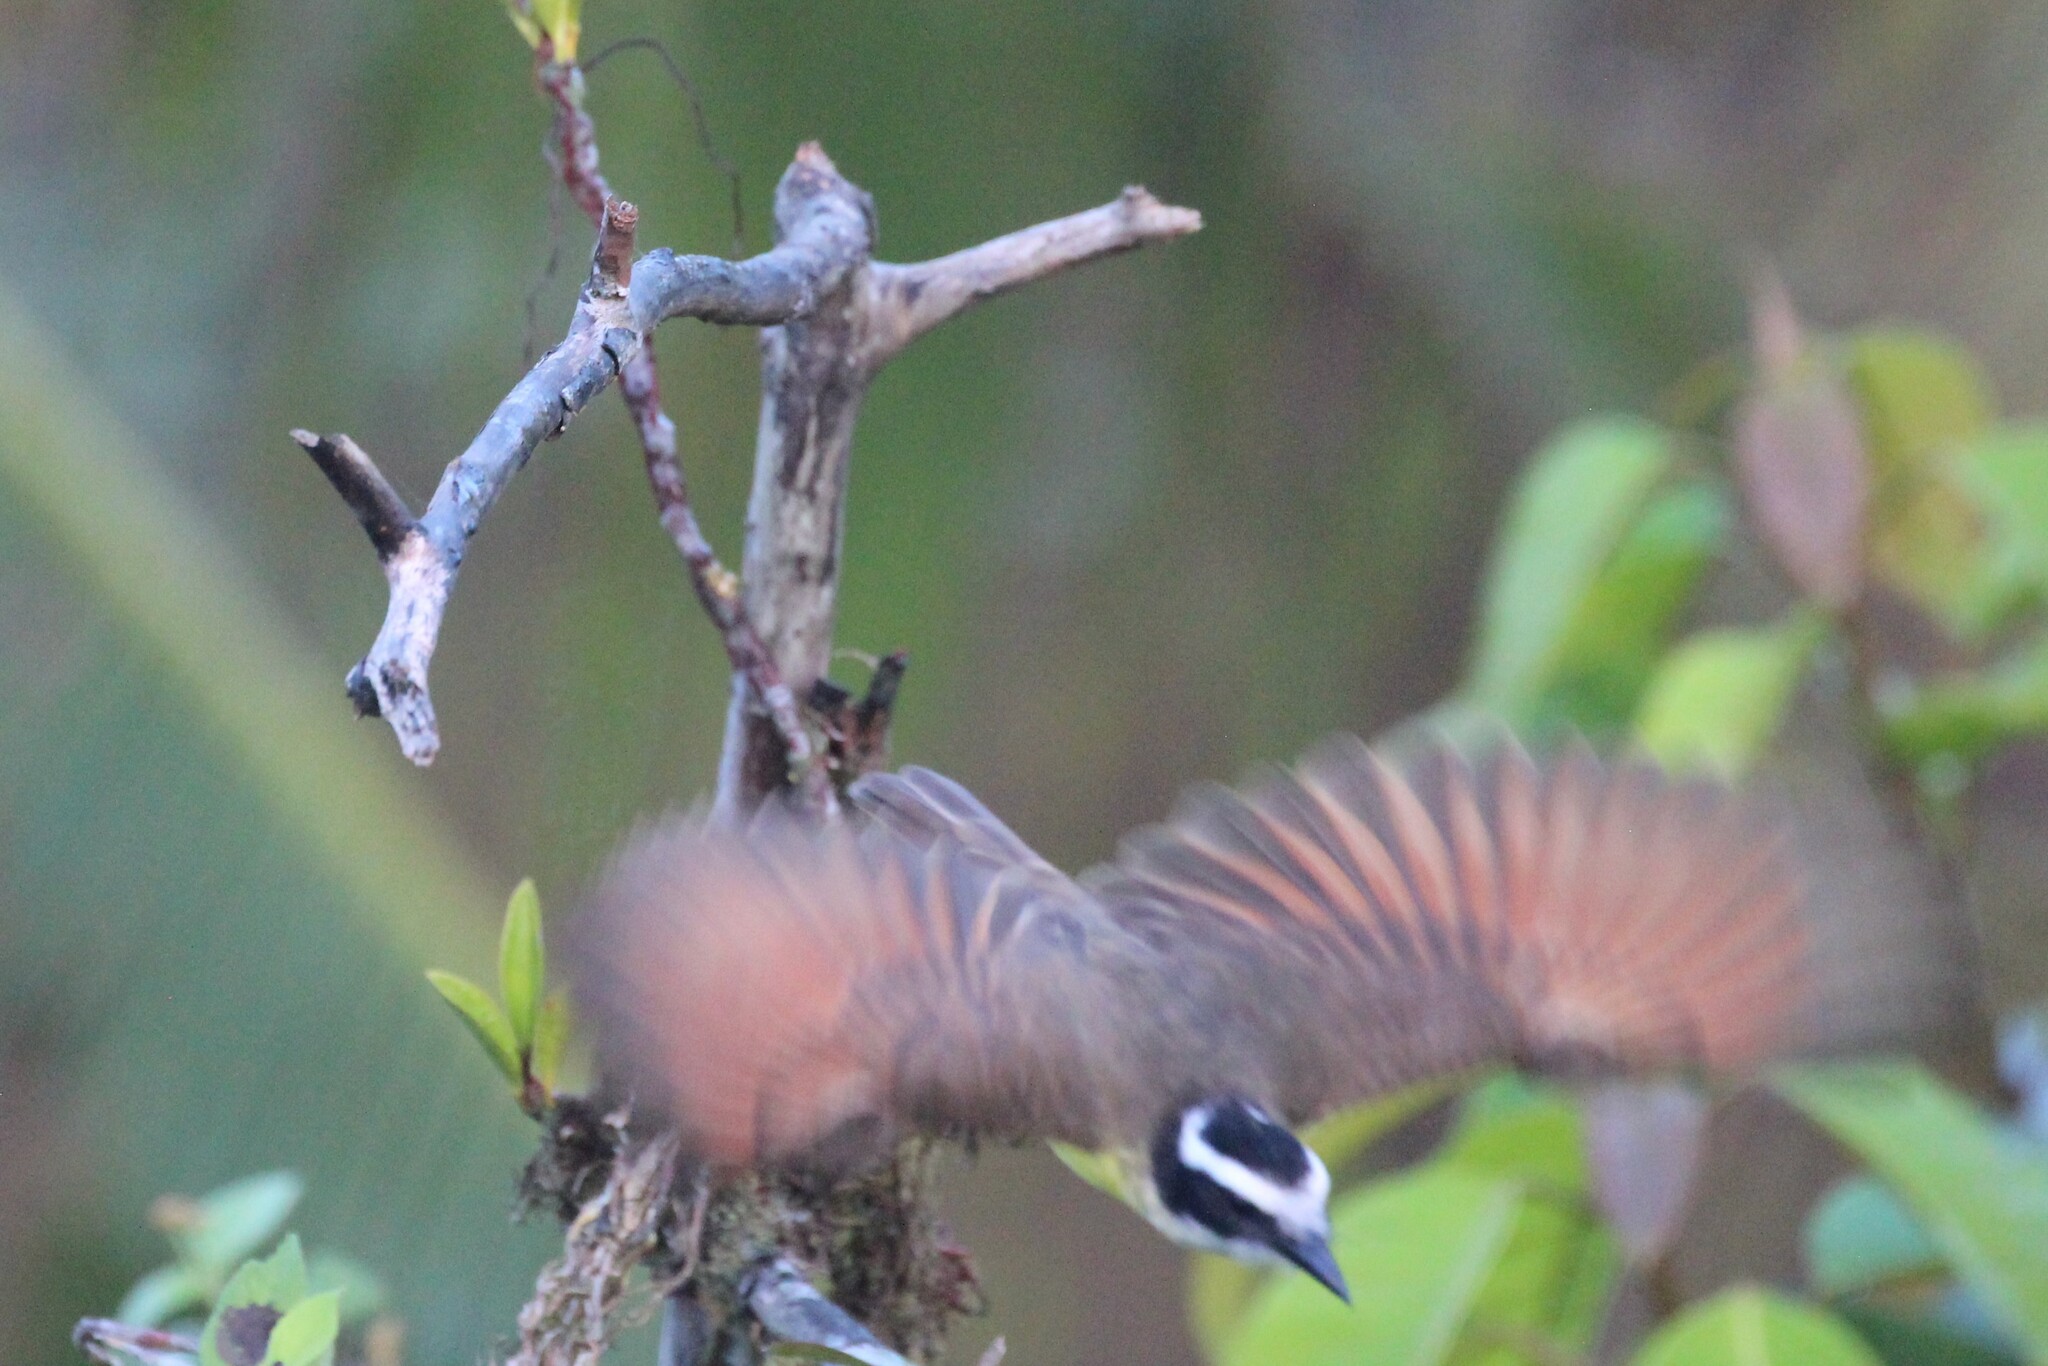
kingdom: Animalia
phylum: Chordata
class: Aves
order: Passeriformes
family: Tyrannidae
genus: Pitangus
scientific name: Pitangus sulphuratus
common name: Great kiskadee
